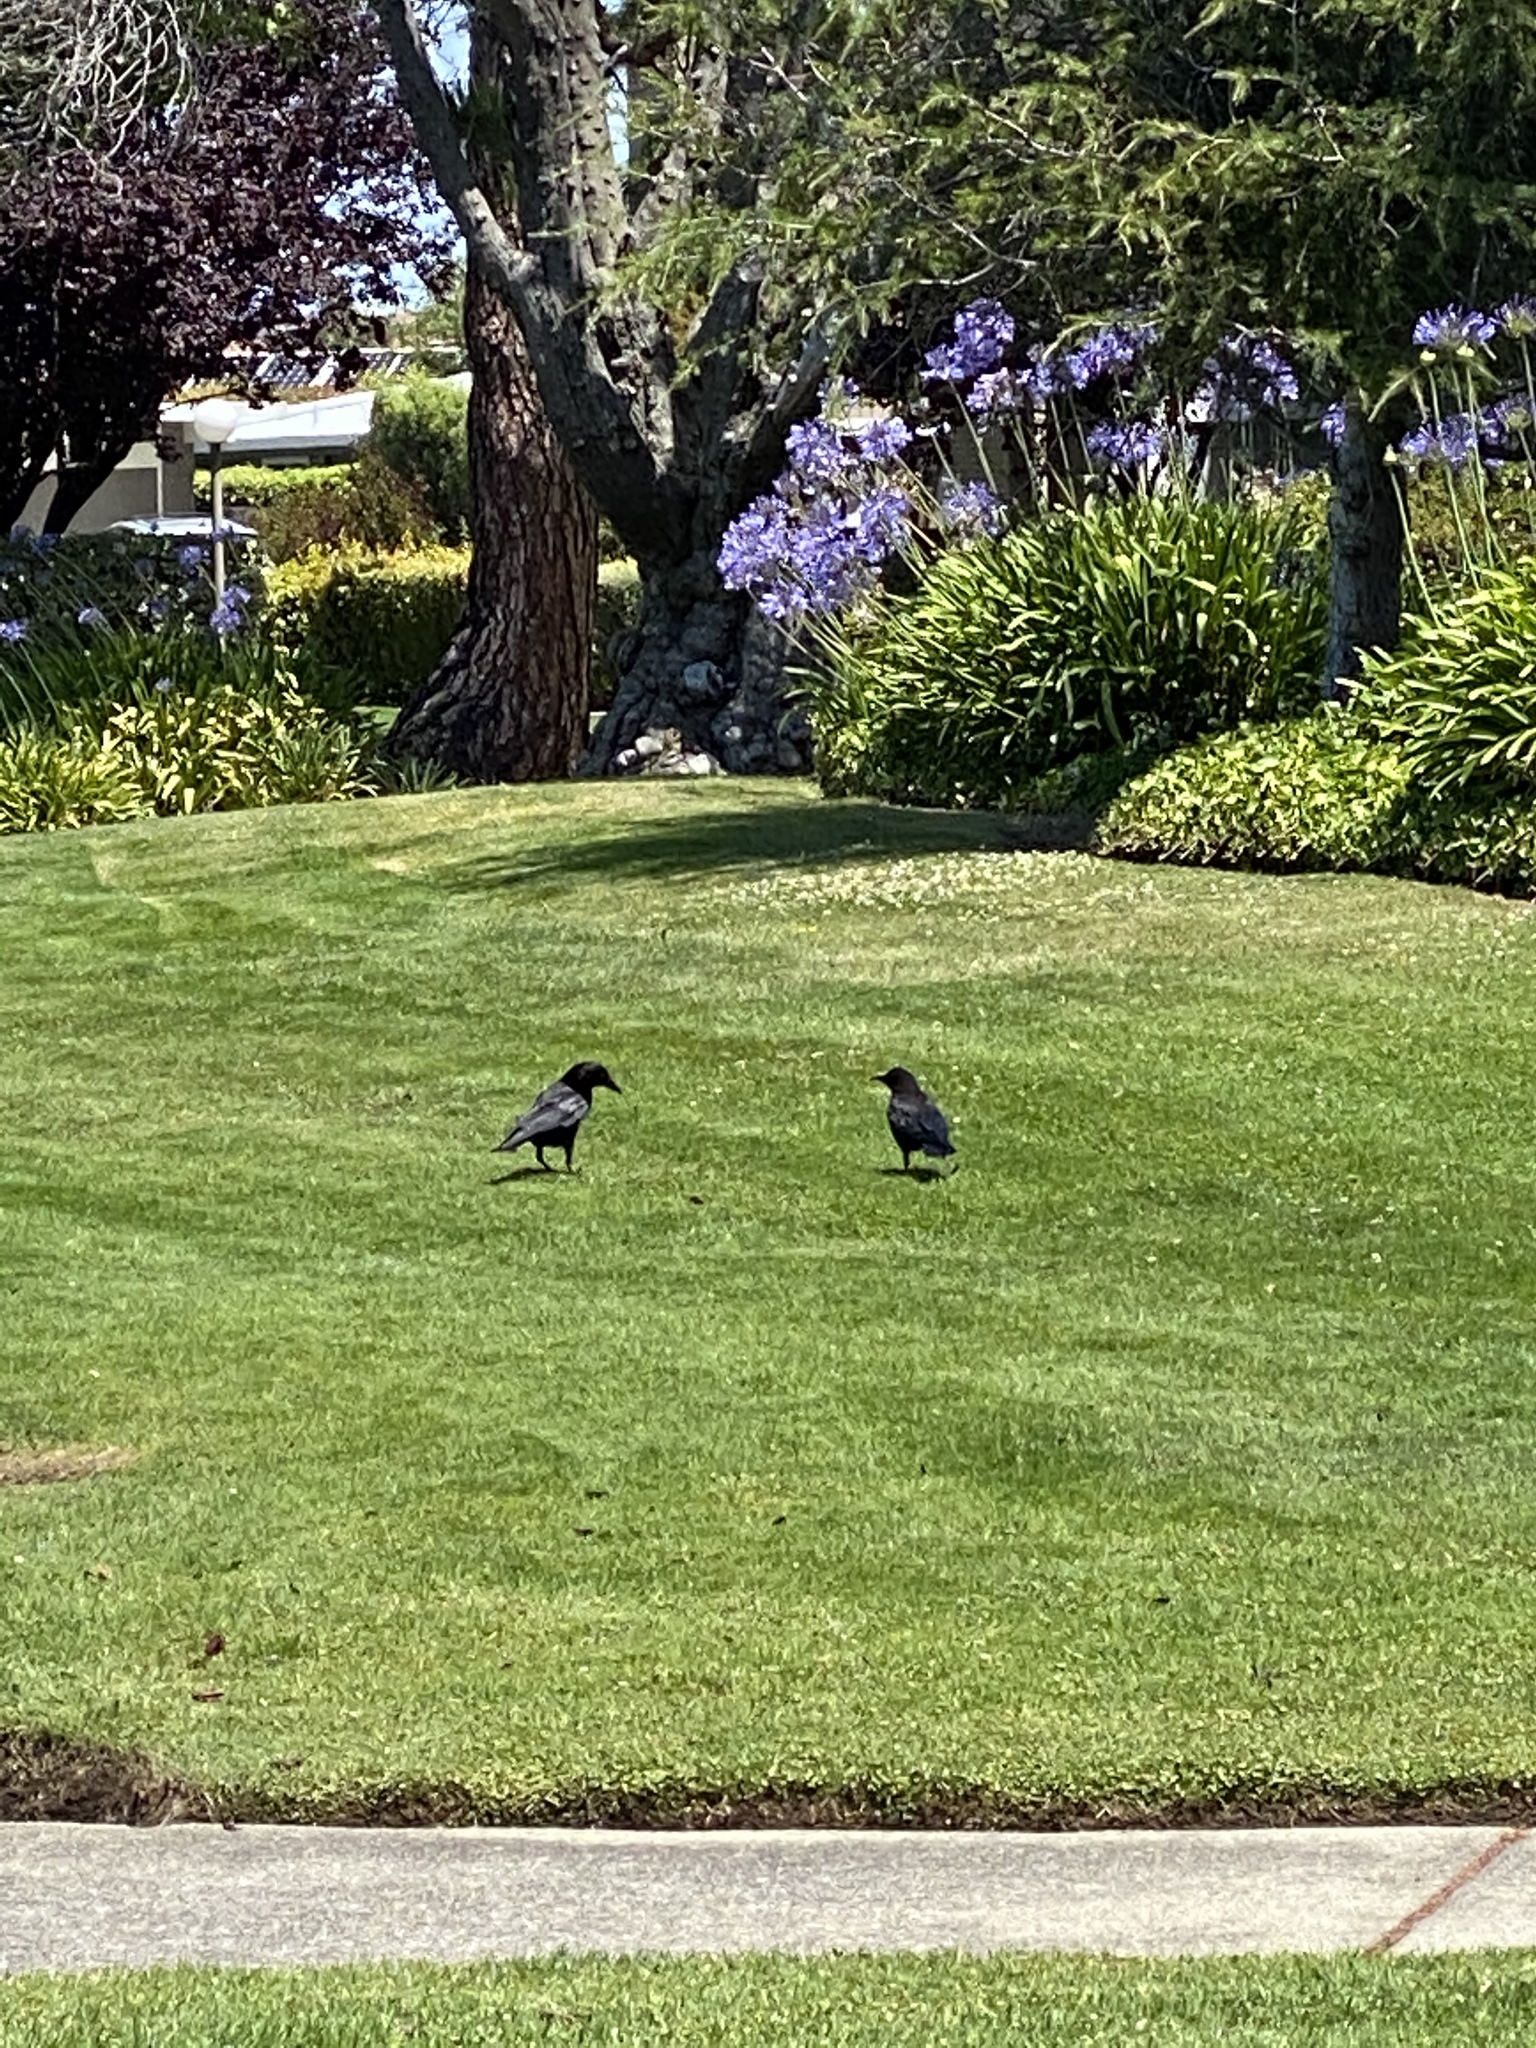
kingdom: Animalia
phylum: Chordata
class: Aves
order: Passeriformes
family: Corvidae
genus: Corvus
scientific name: Corvus brachyrhynchos
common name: American crow
